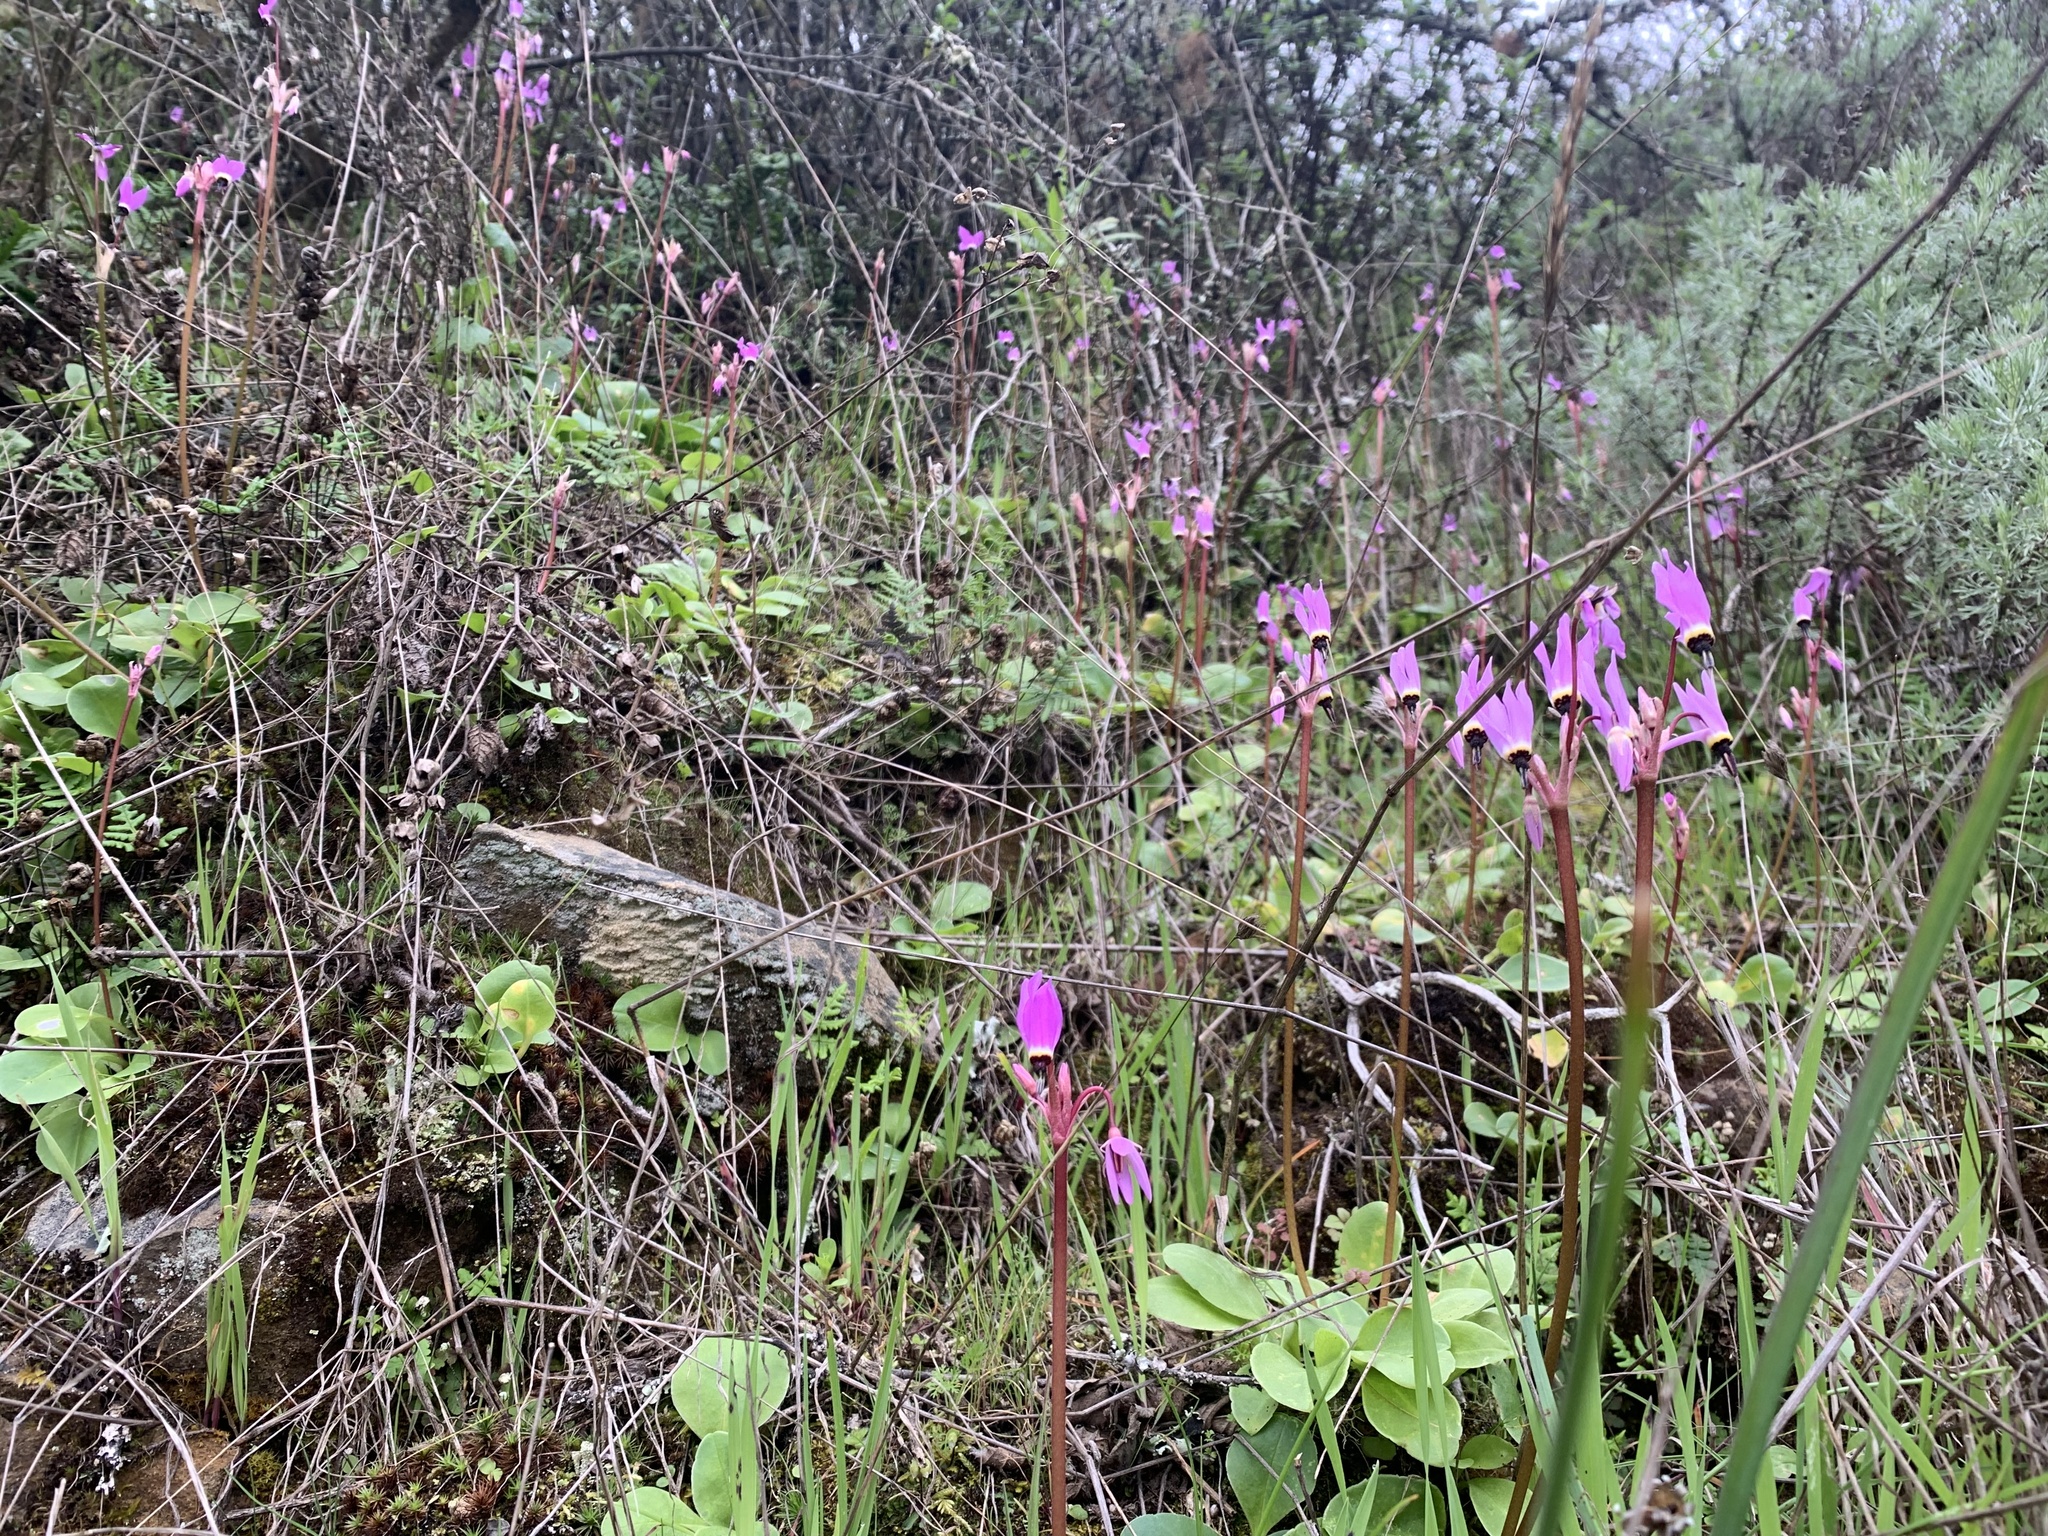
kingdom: Plantae
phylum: Tracheophyta
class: Magnoliopsida
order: Ericales
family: Primulaceae
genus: Dodecatheon
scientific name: Dodecatheon hendersonii
